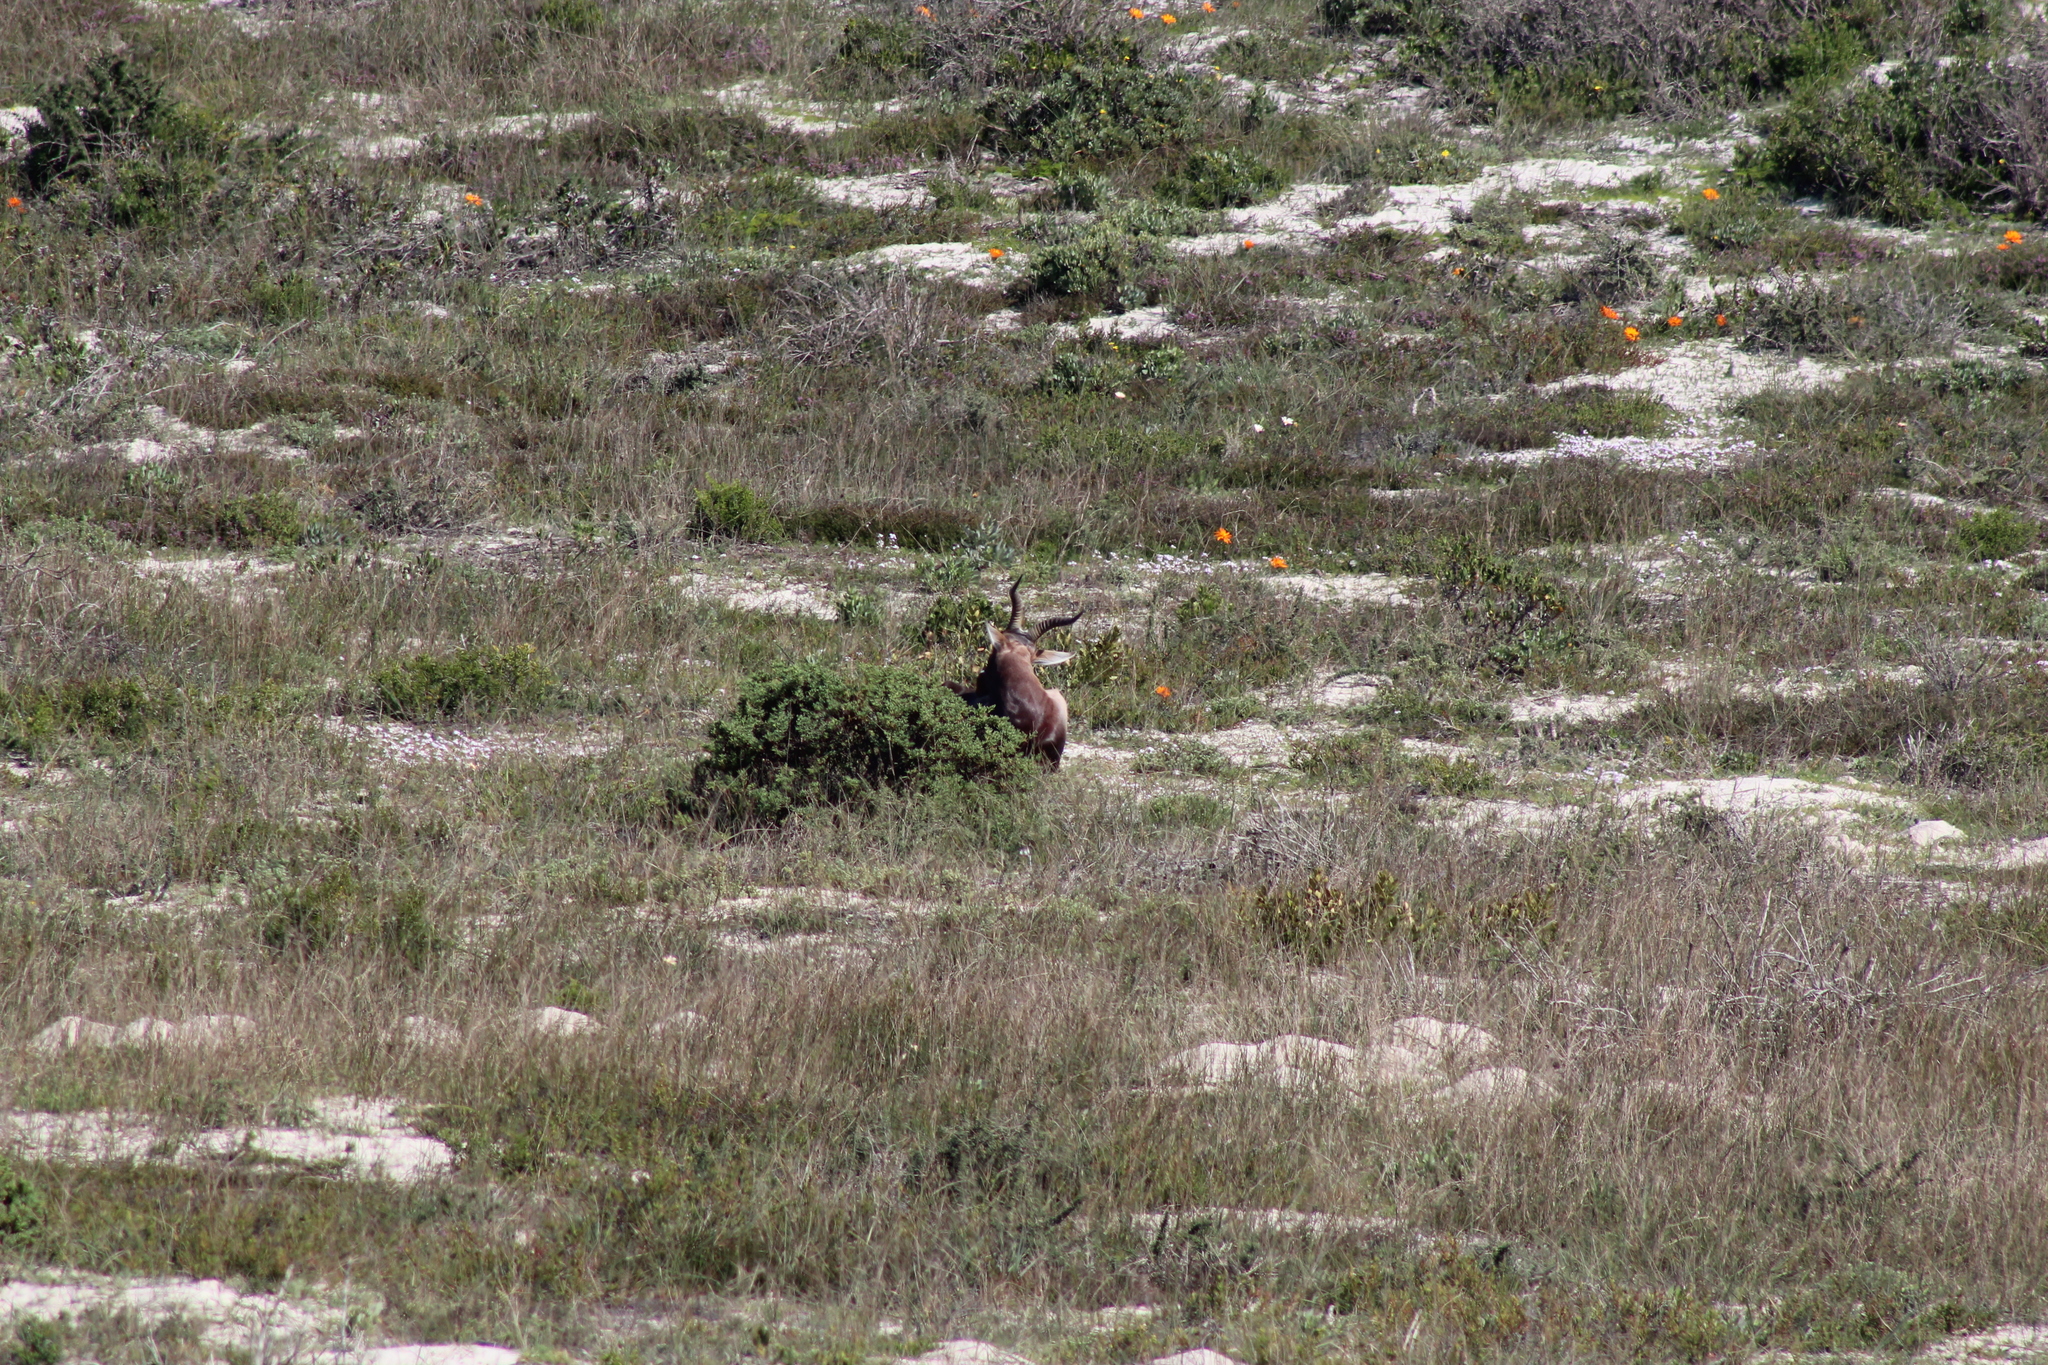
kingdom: Animalia
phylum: Chordata
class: Mammalia
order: Artiodactyla
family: Bovidae
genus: Damaliscus
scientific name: Damaliscus pygargus
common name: Bontebok
